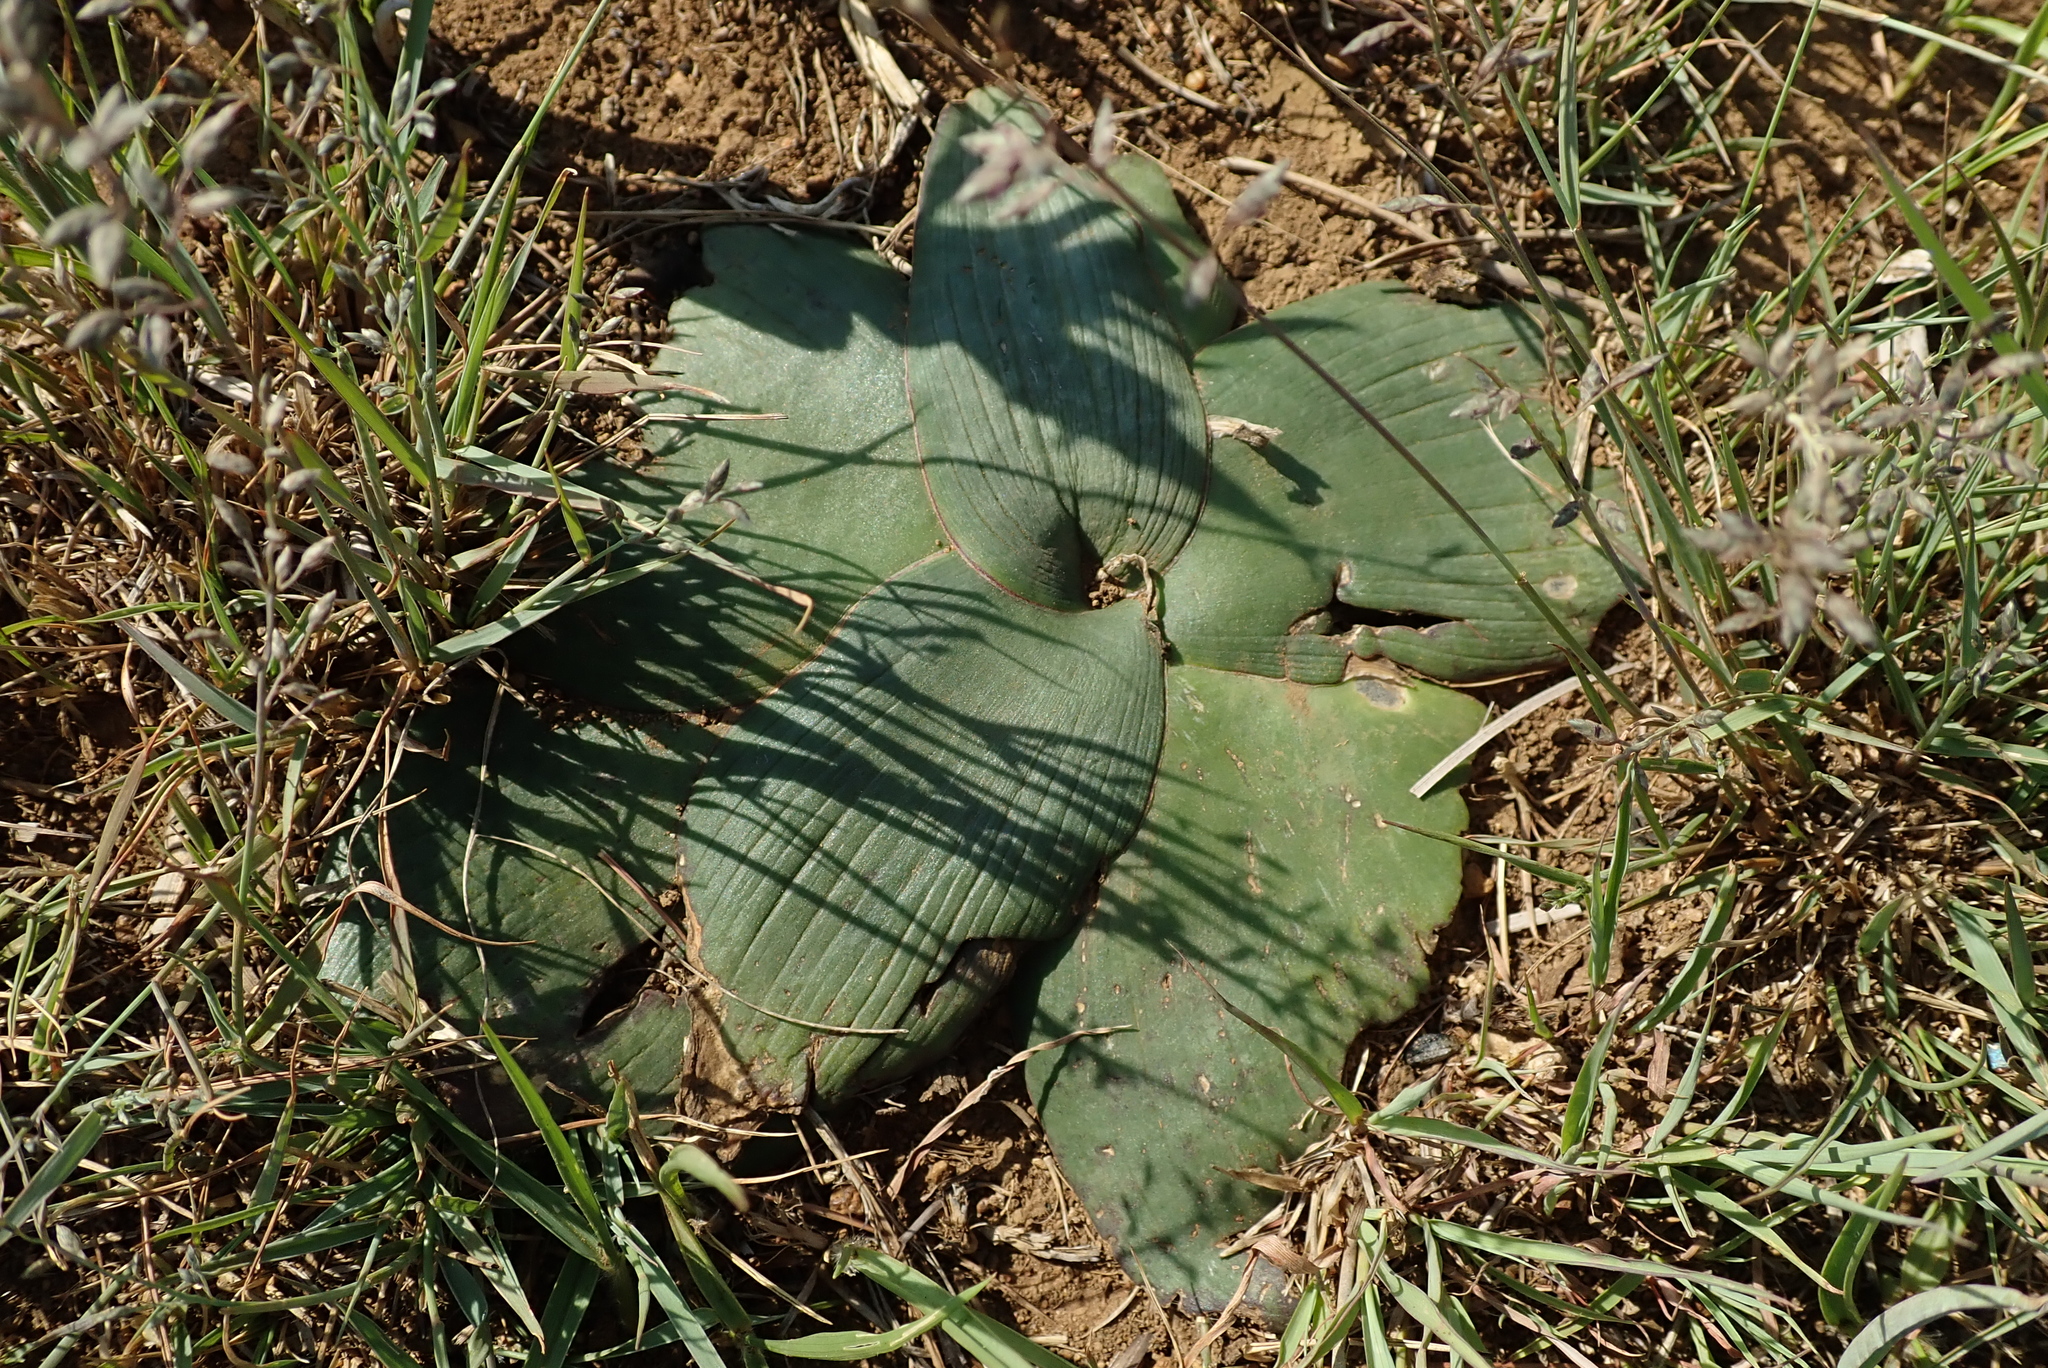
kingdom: Plantae
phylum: Tracheophyta
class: Liliopsida
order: Asparagales
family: Asparagaceae
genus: Ledebouria
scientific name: Ledebouria ovatifolia
